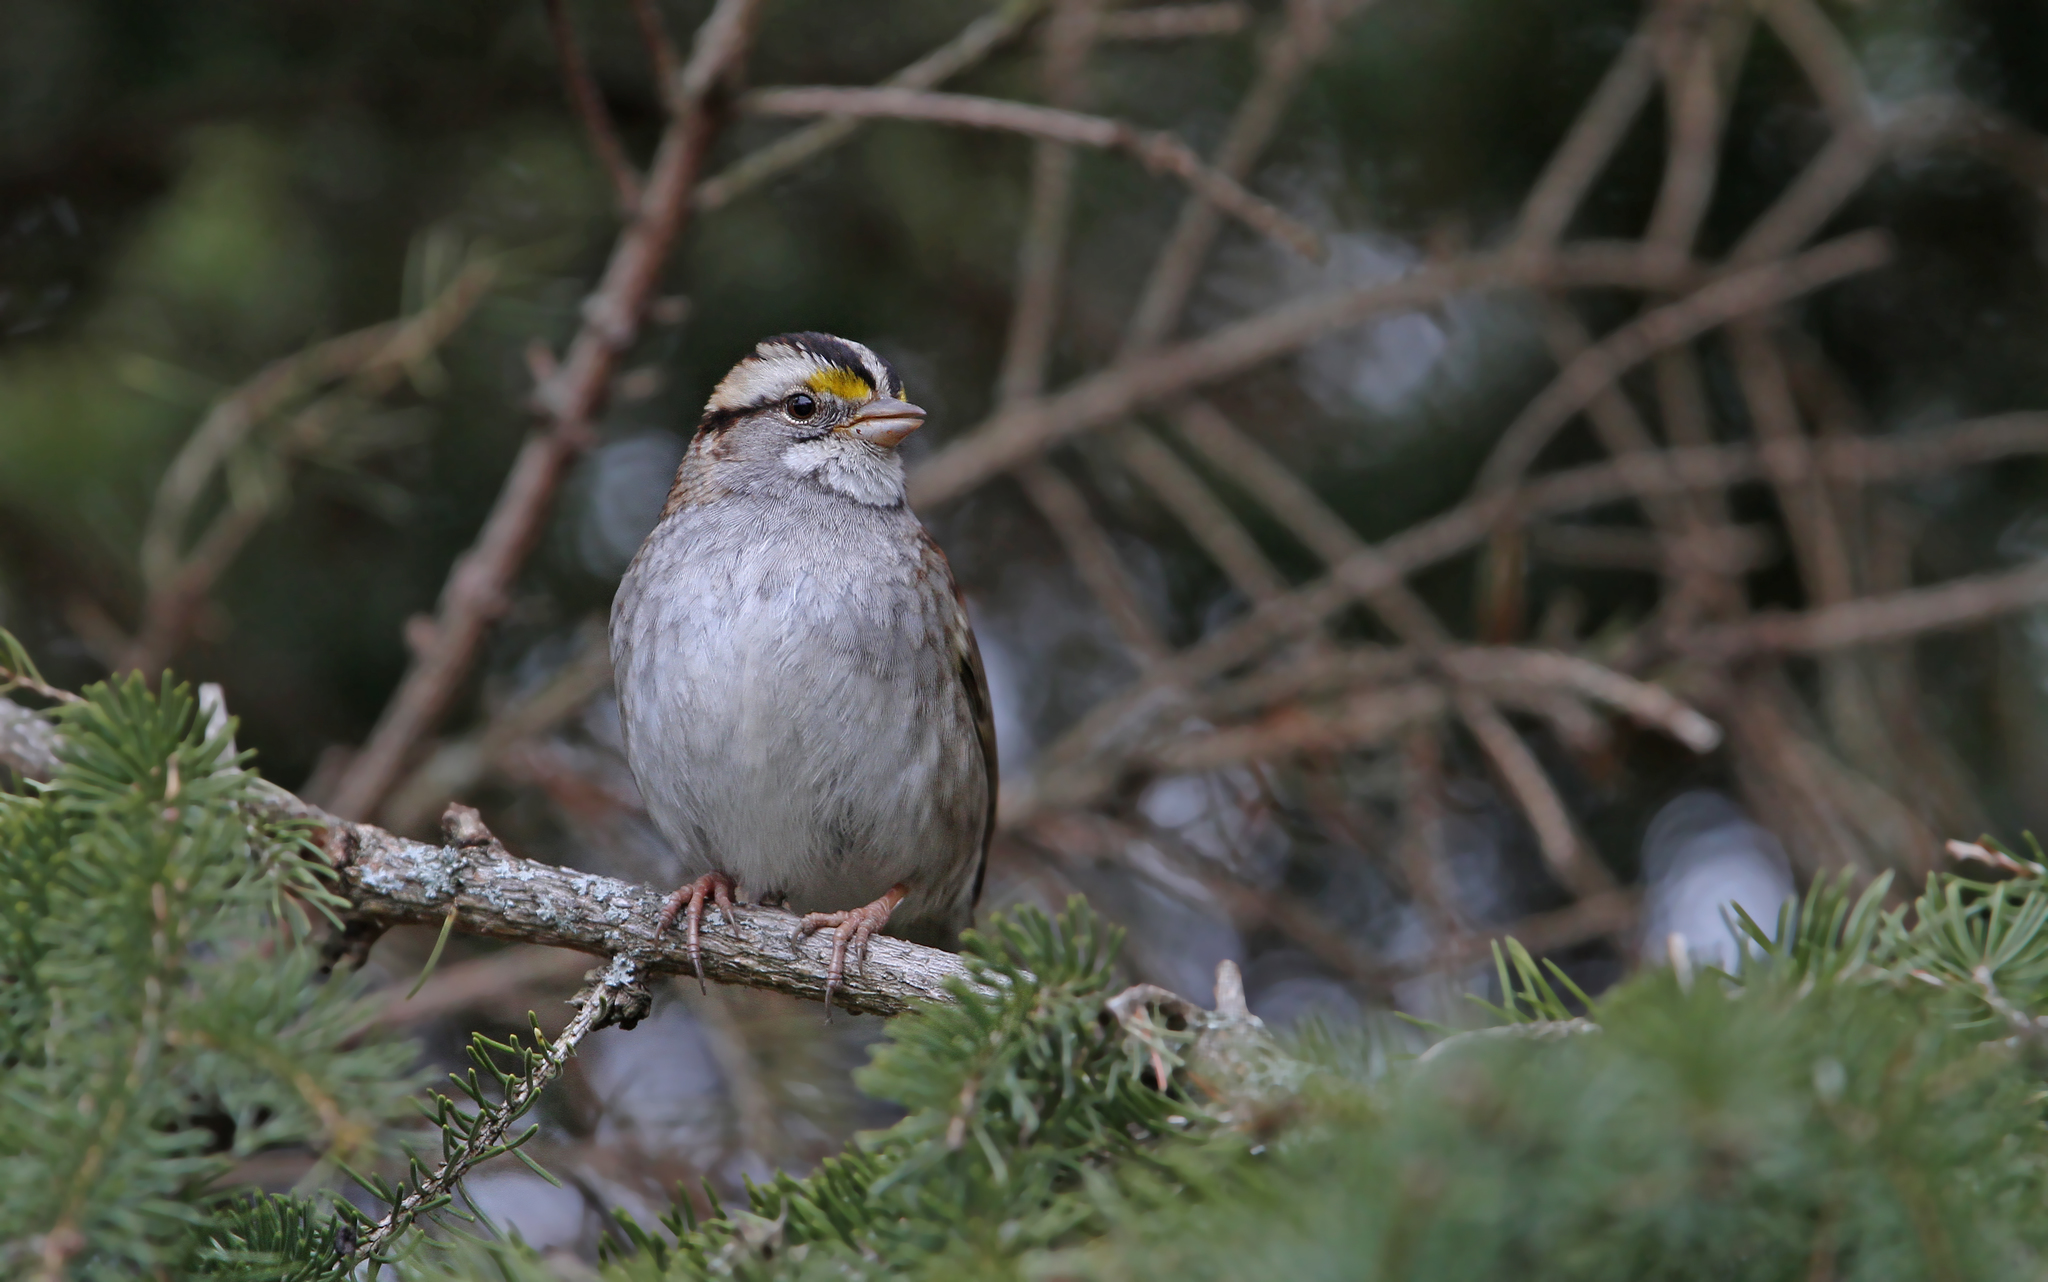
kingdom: Animalia
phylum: Chordata
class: Aves
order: Passeriformes
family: Passerellidae
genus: Zonotrichia
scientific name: Zonotrichia albicollis
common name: White-throated sparrow
